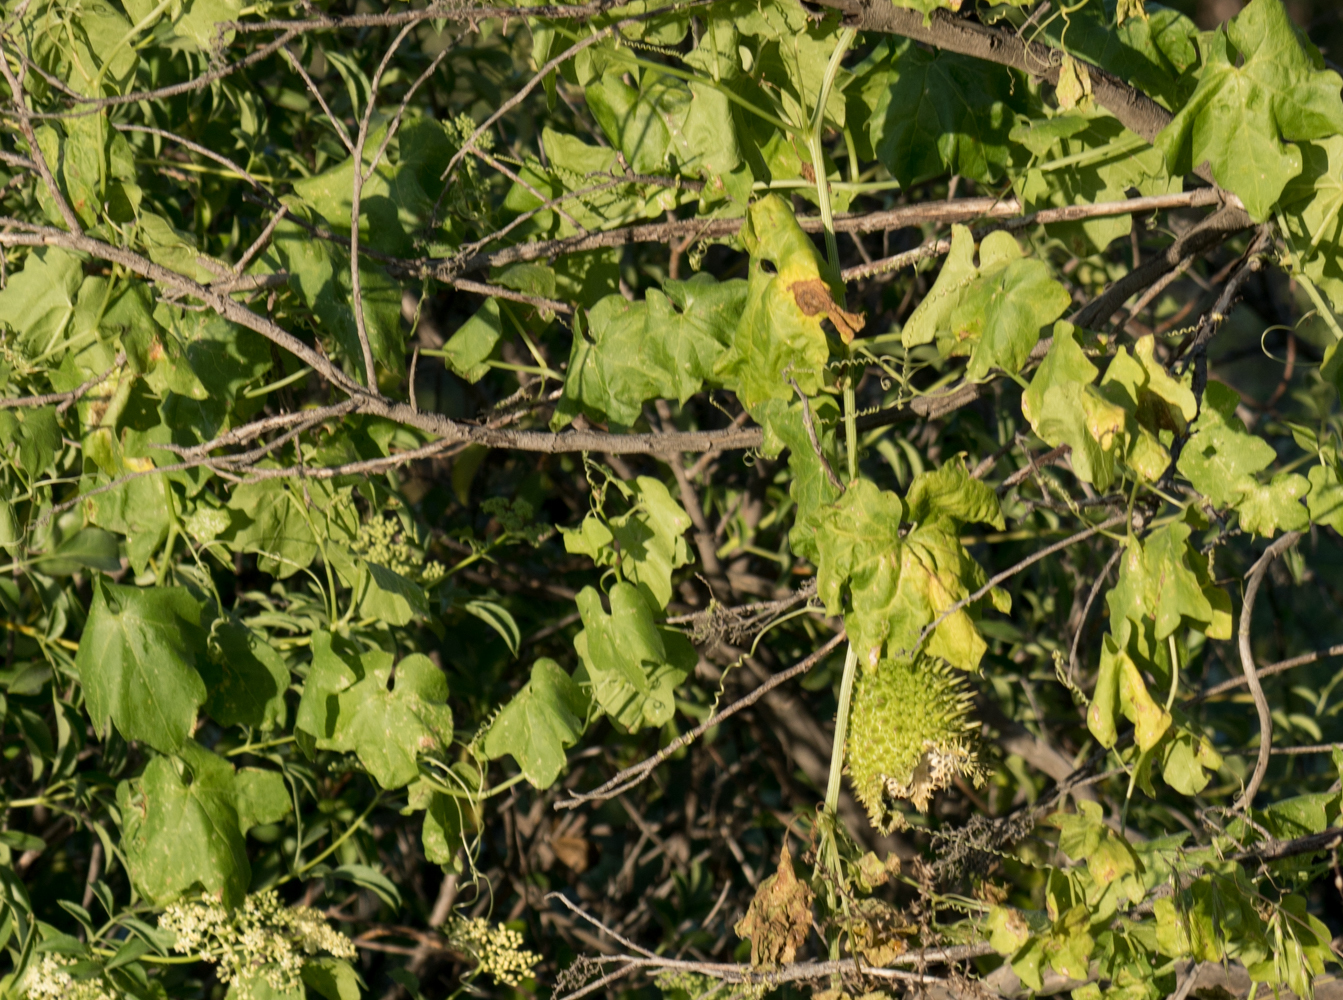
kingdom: Plantae
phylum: Tracheophyta
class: Magnoliopsida
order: Cucurbitales
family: Cucurbitaceae
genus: Marah
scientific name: Marah macrocarpa
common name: Cucamonga manroot
